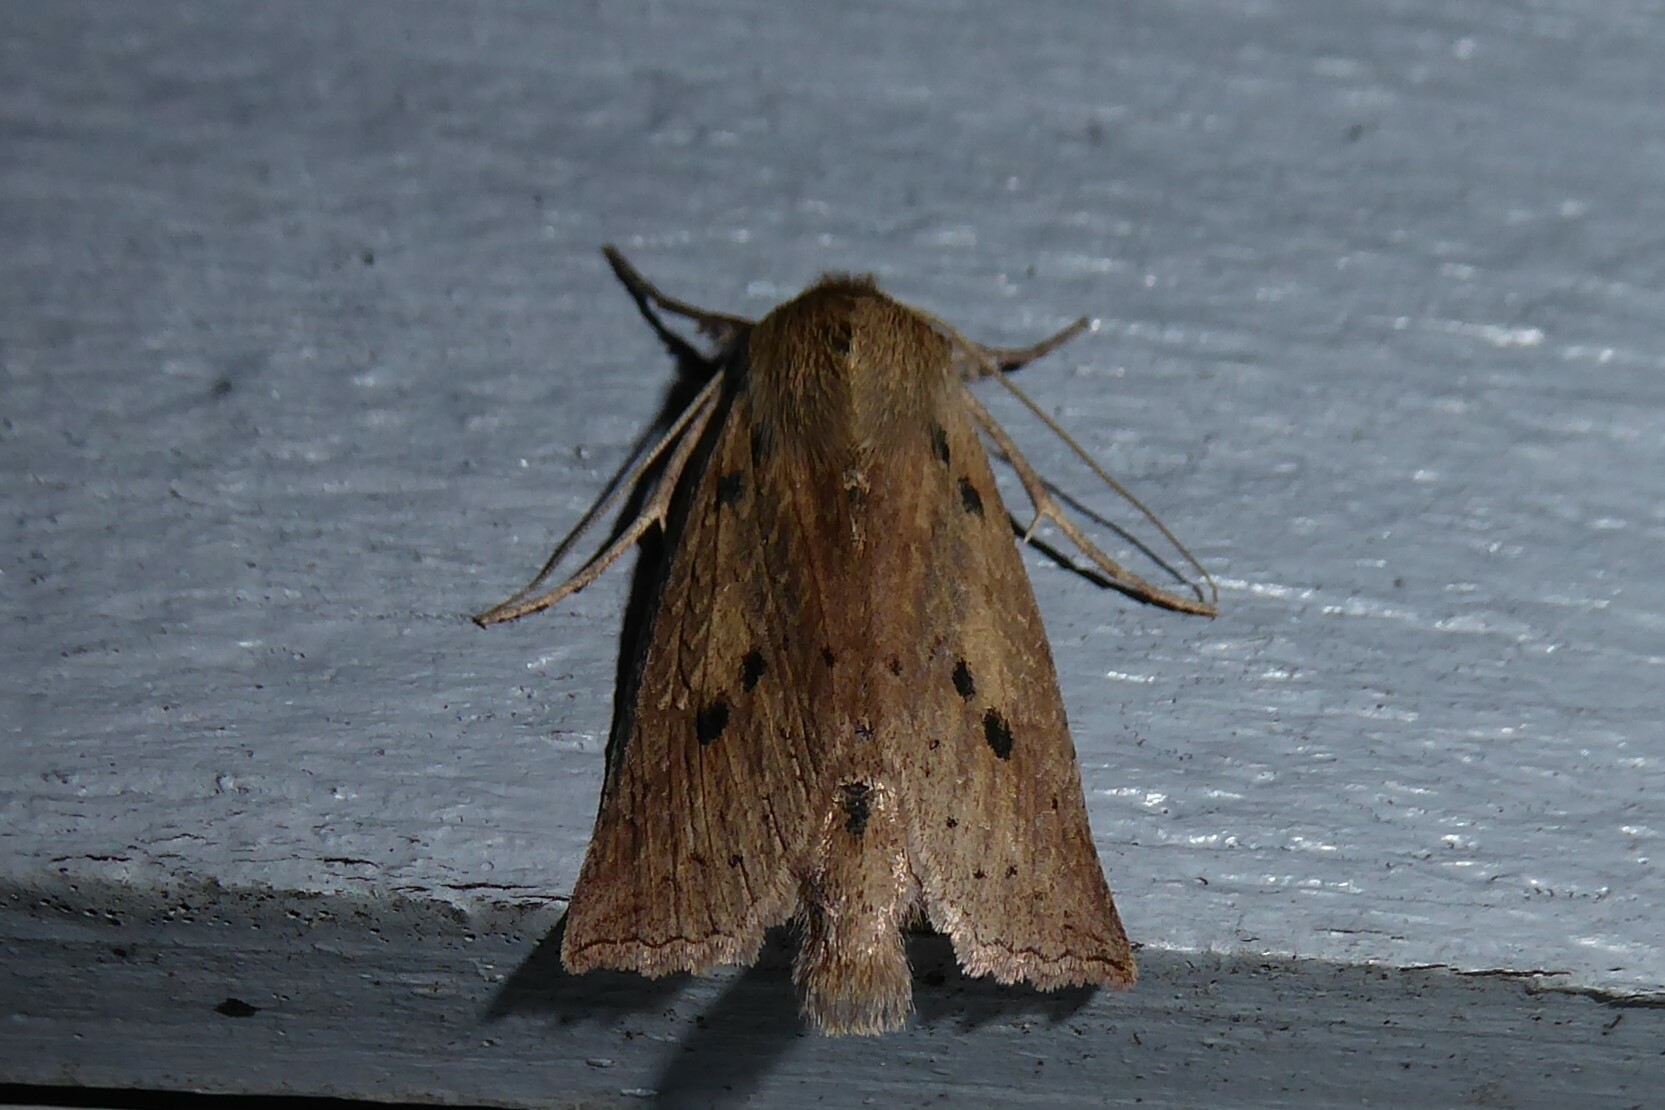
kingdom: Animalia
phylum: Arthropoda
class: Insecta
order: Lepidoptera
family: Geometridae
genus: Declana
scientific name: Declana leptomera
